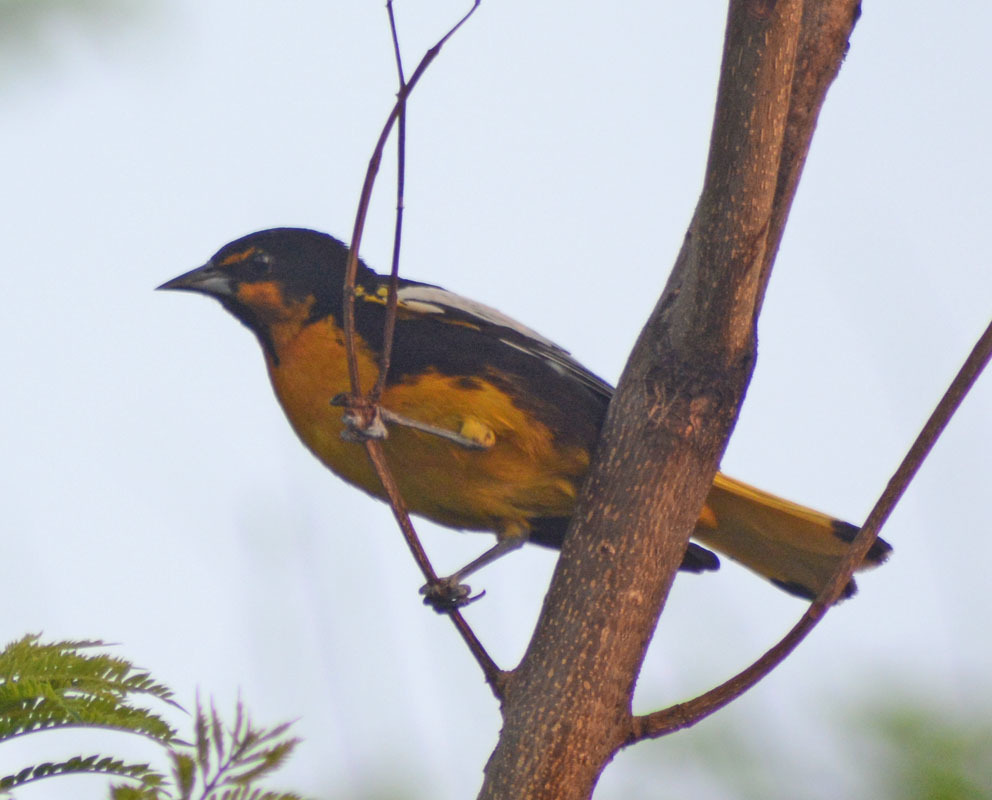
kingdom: Animalia
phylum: Chordata
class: Aves
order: Passeriformes
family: Icteridae
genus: Icterus
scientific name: Icterus abeillei
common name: Black-backed oriole
